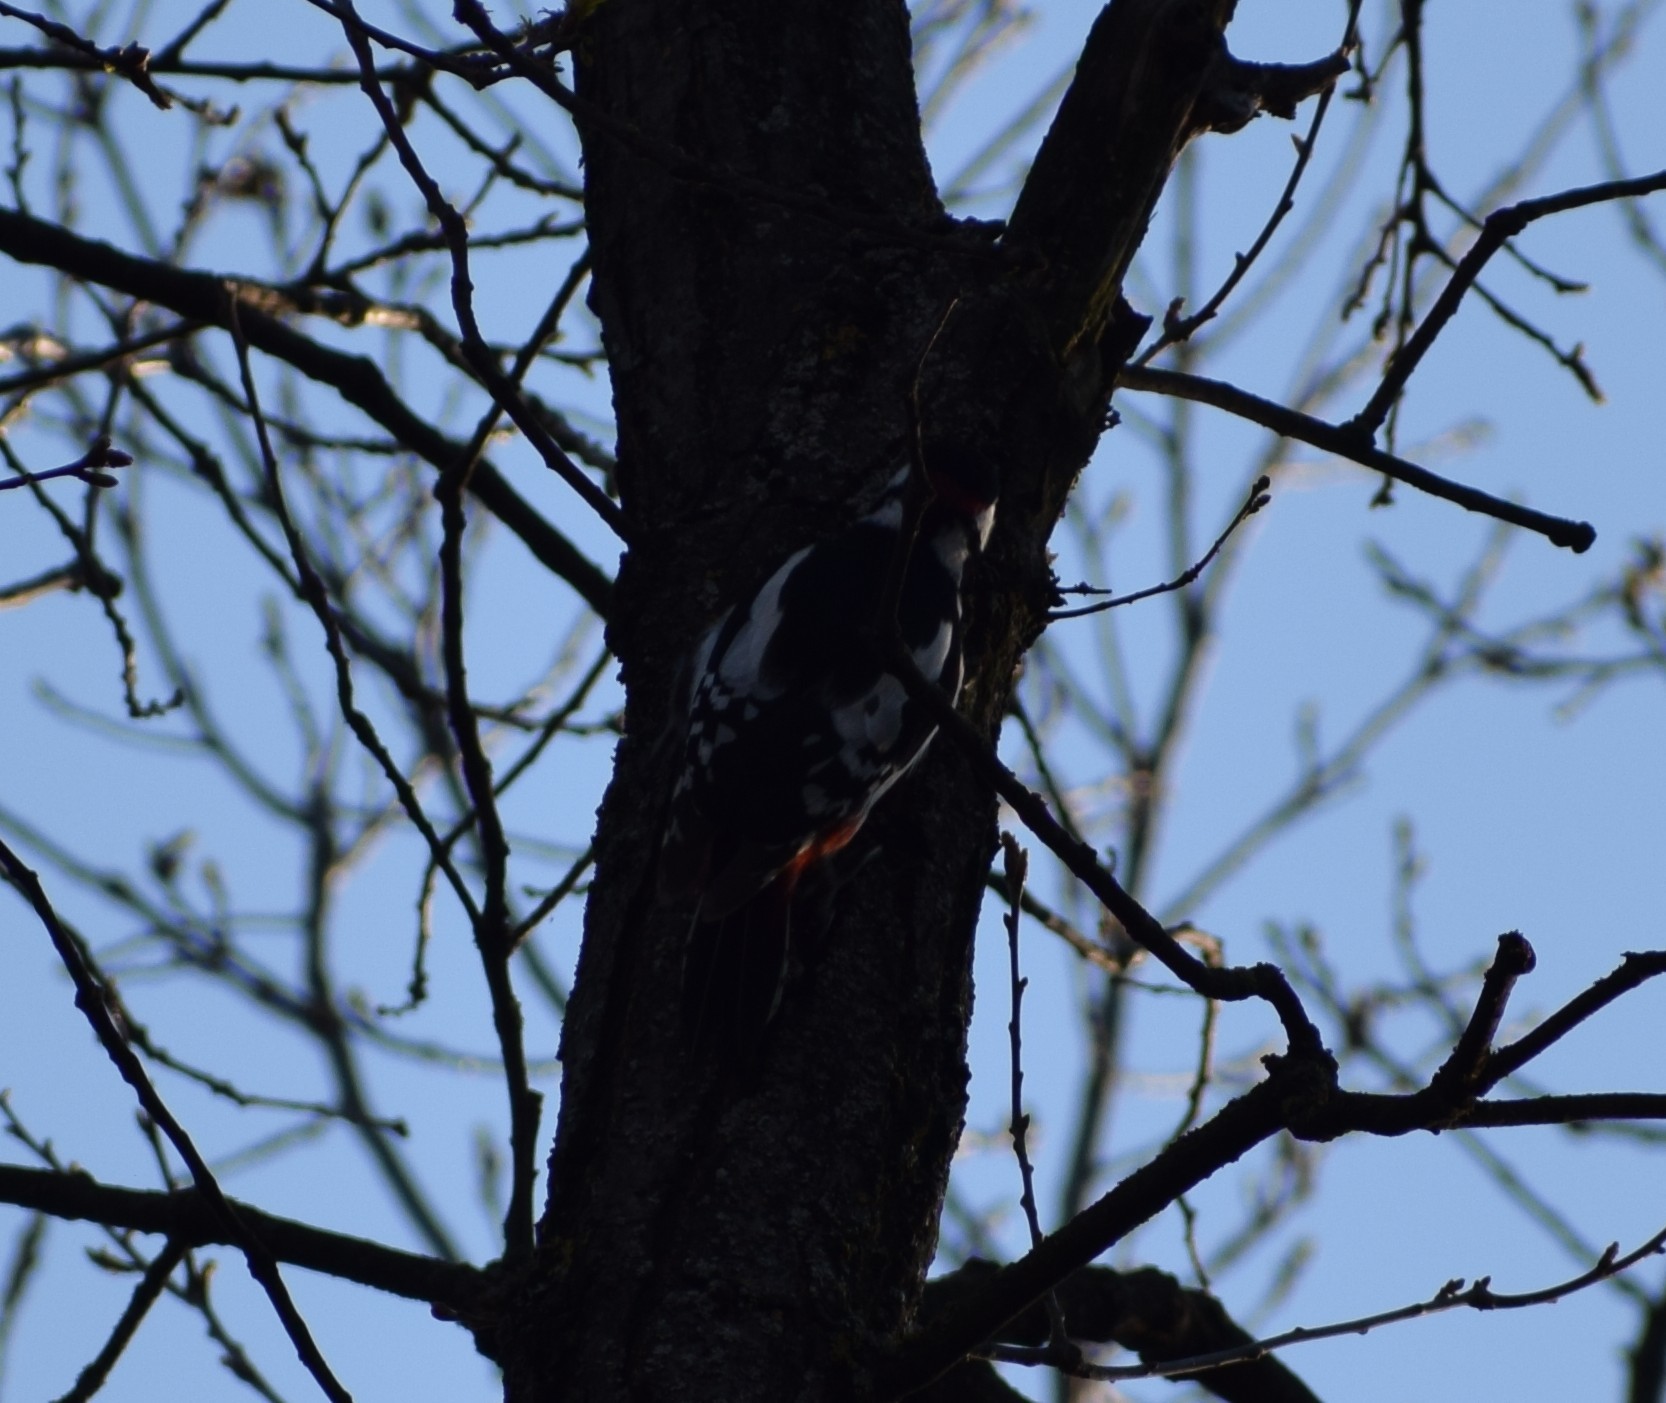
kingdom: Animalia
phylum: Chordata
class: Aves
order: Piciformes
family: Picidae
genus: Dendrocopos
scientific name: Dendrocopos major
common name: Great spotted woodpecker
